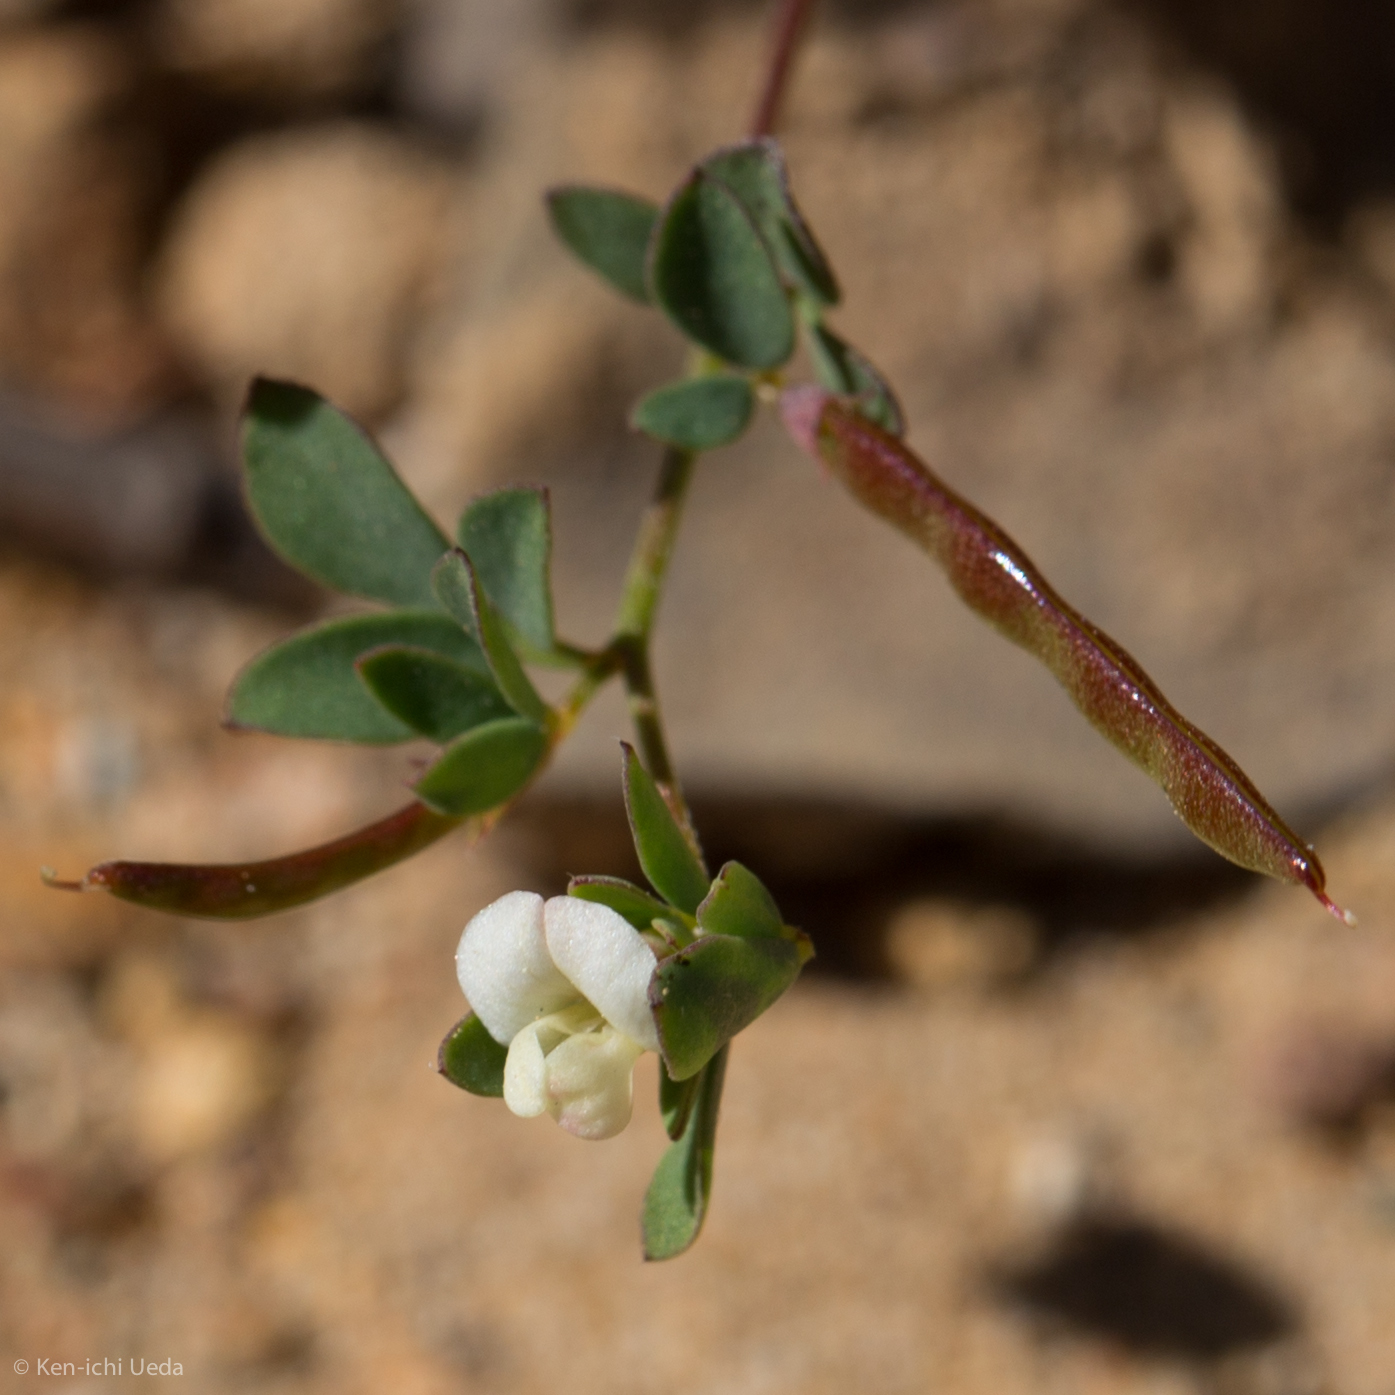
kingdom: Plantae
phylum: Tracheophyta
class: Magnoliopsida
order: Fabales
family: Fabaceae
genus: Acmispon
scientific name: Acmispon parviflorus
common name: Desert deer-vetch
